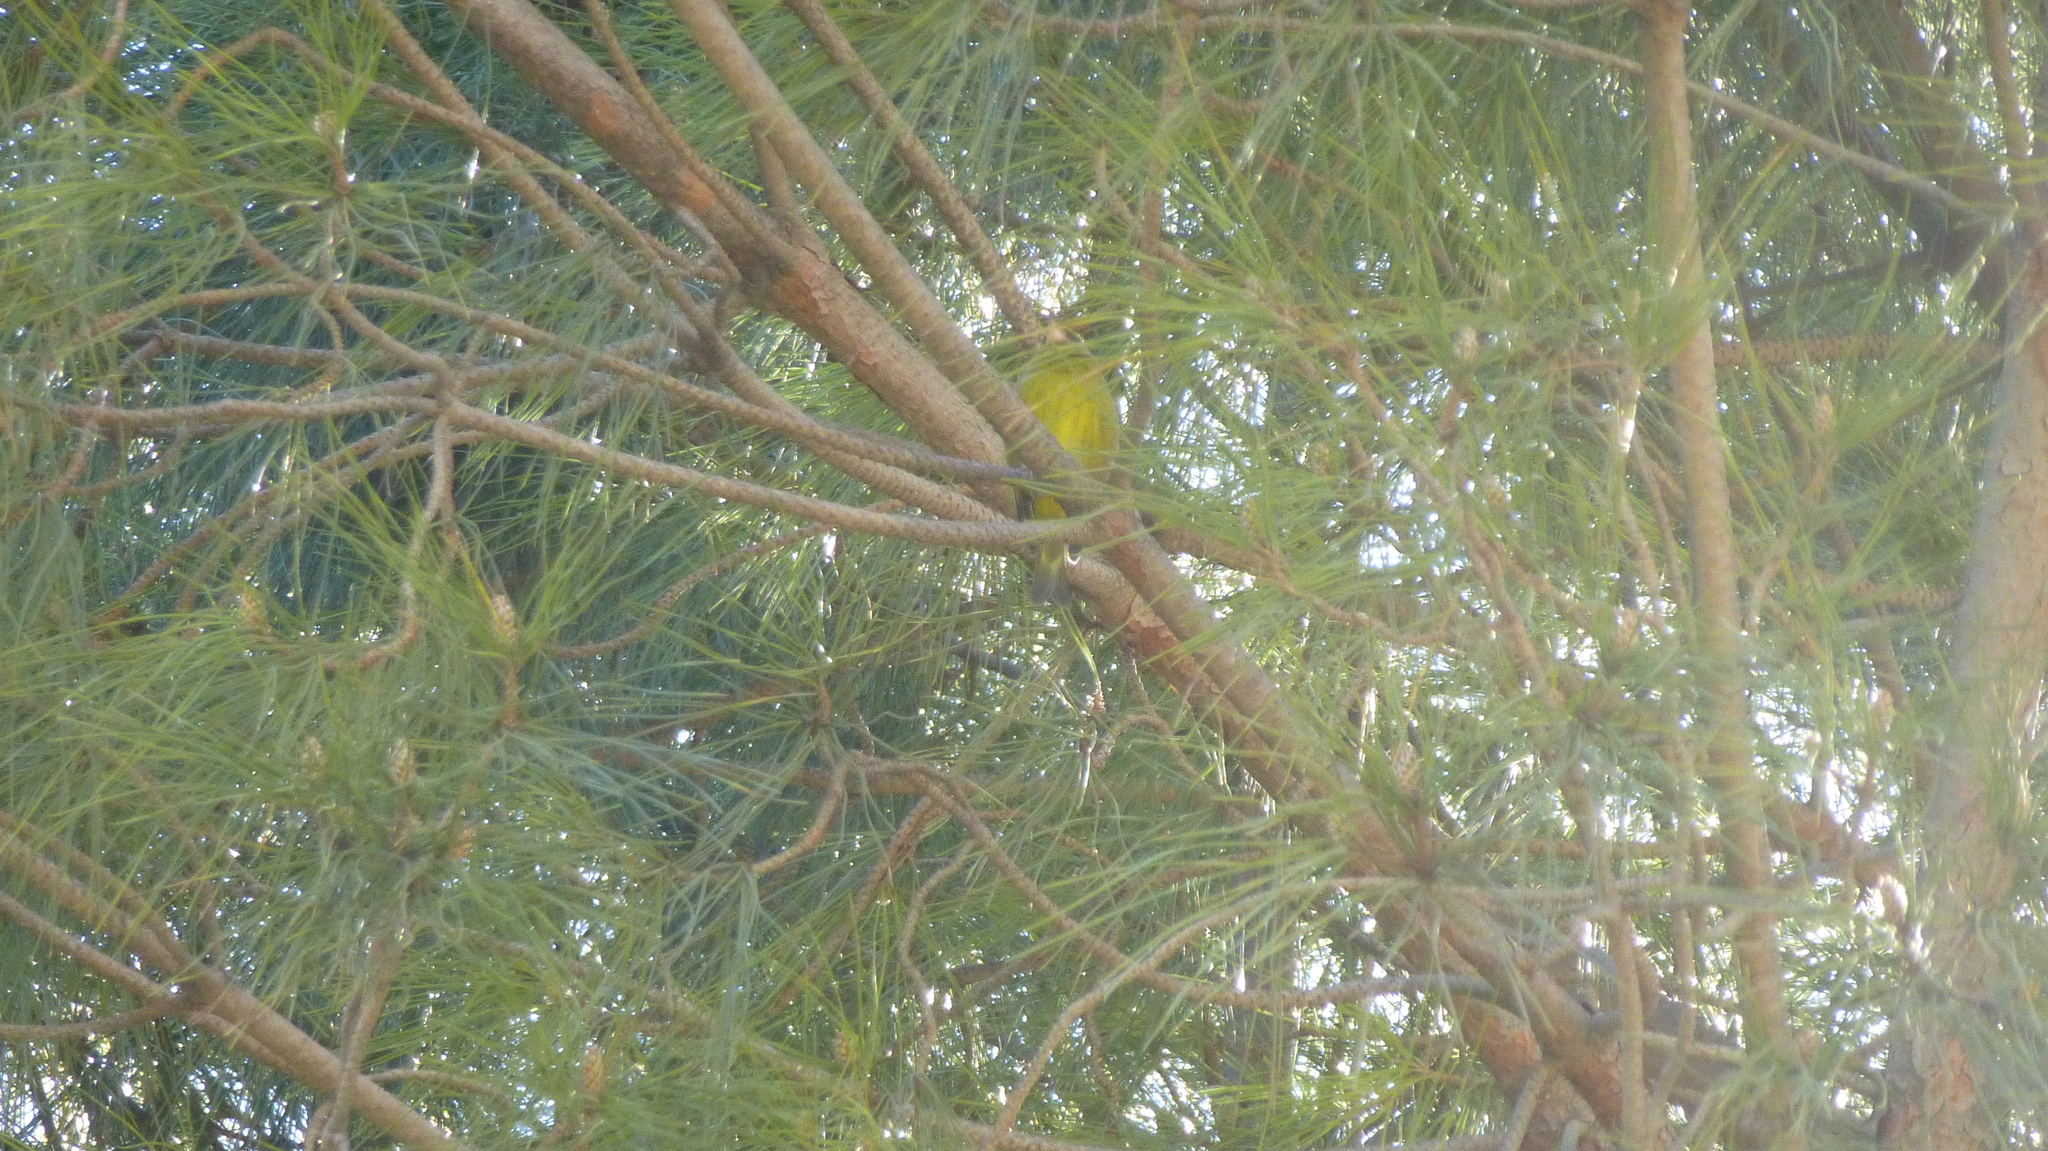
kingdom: Plantae
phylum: Tracheophyta
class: Liliopsida
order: Poales
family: Poaceae
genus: Chloris
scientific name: Chloris chloris
